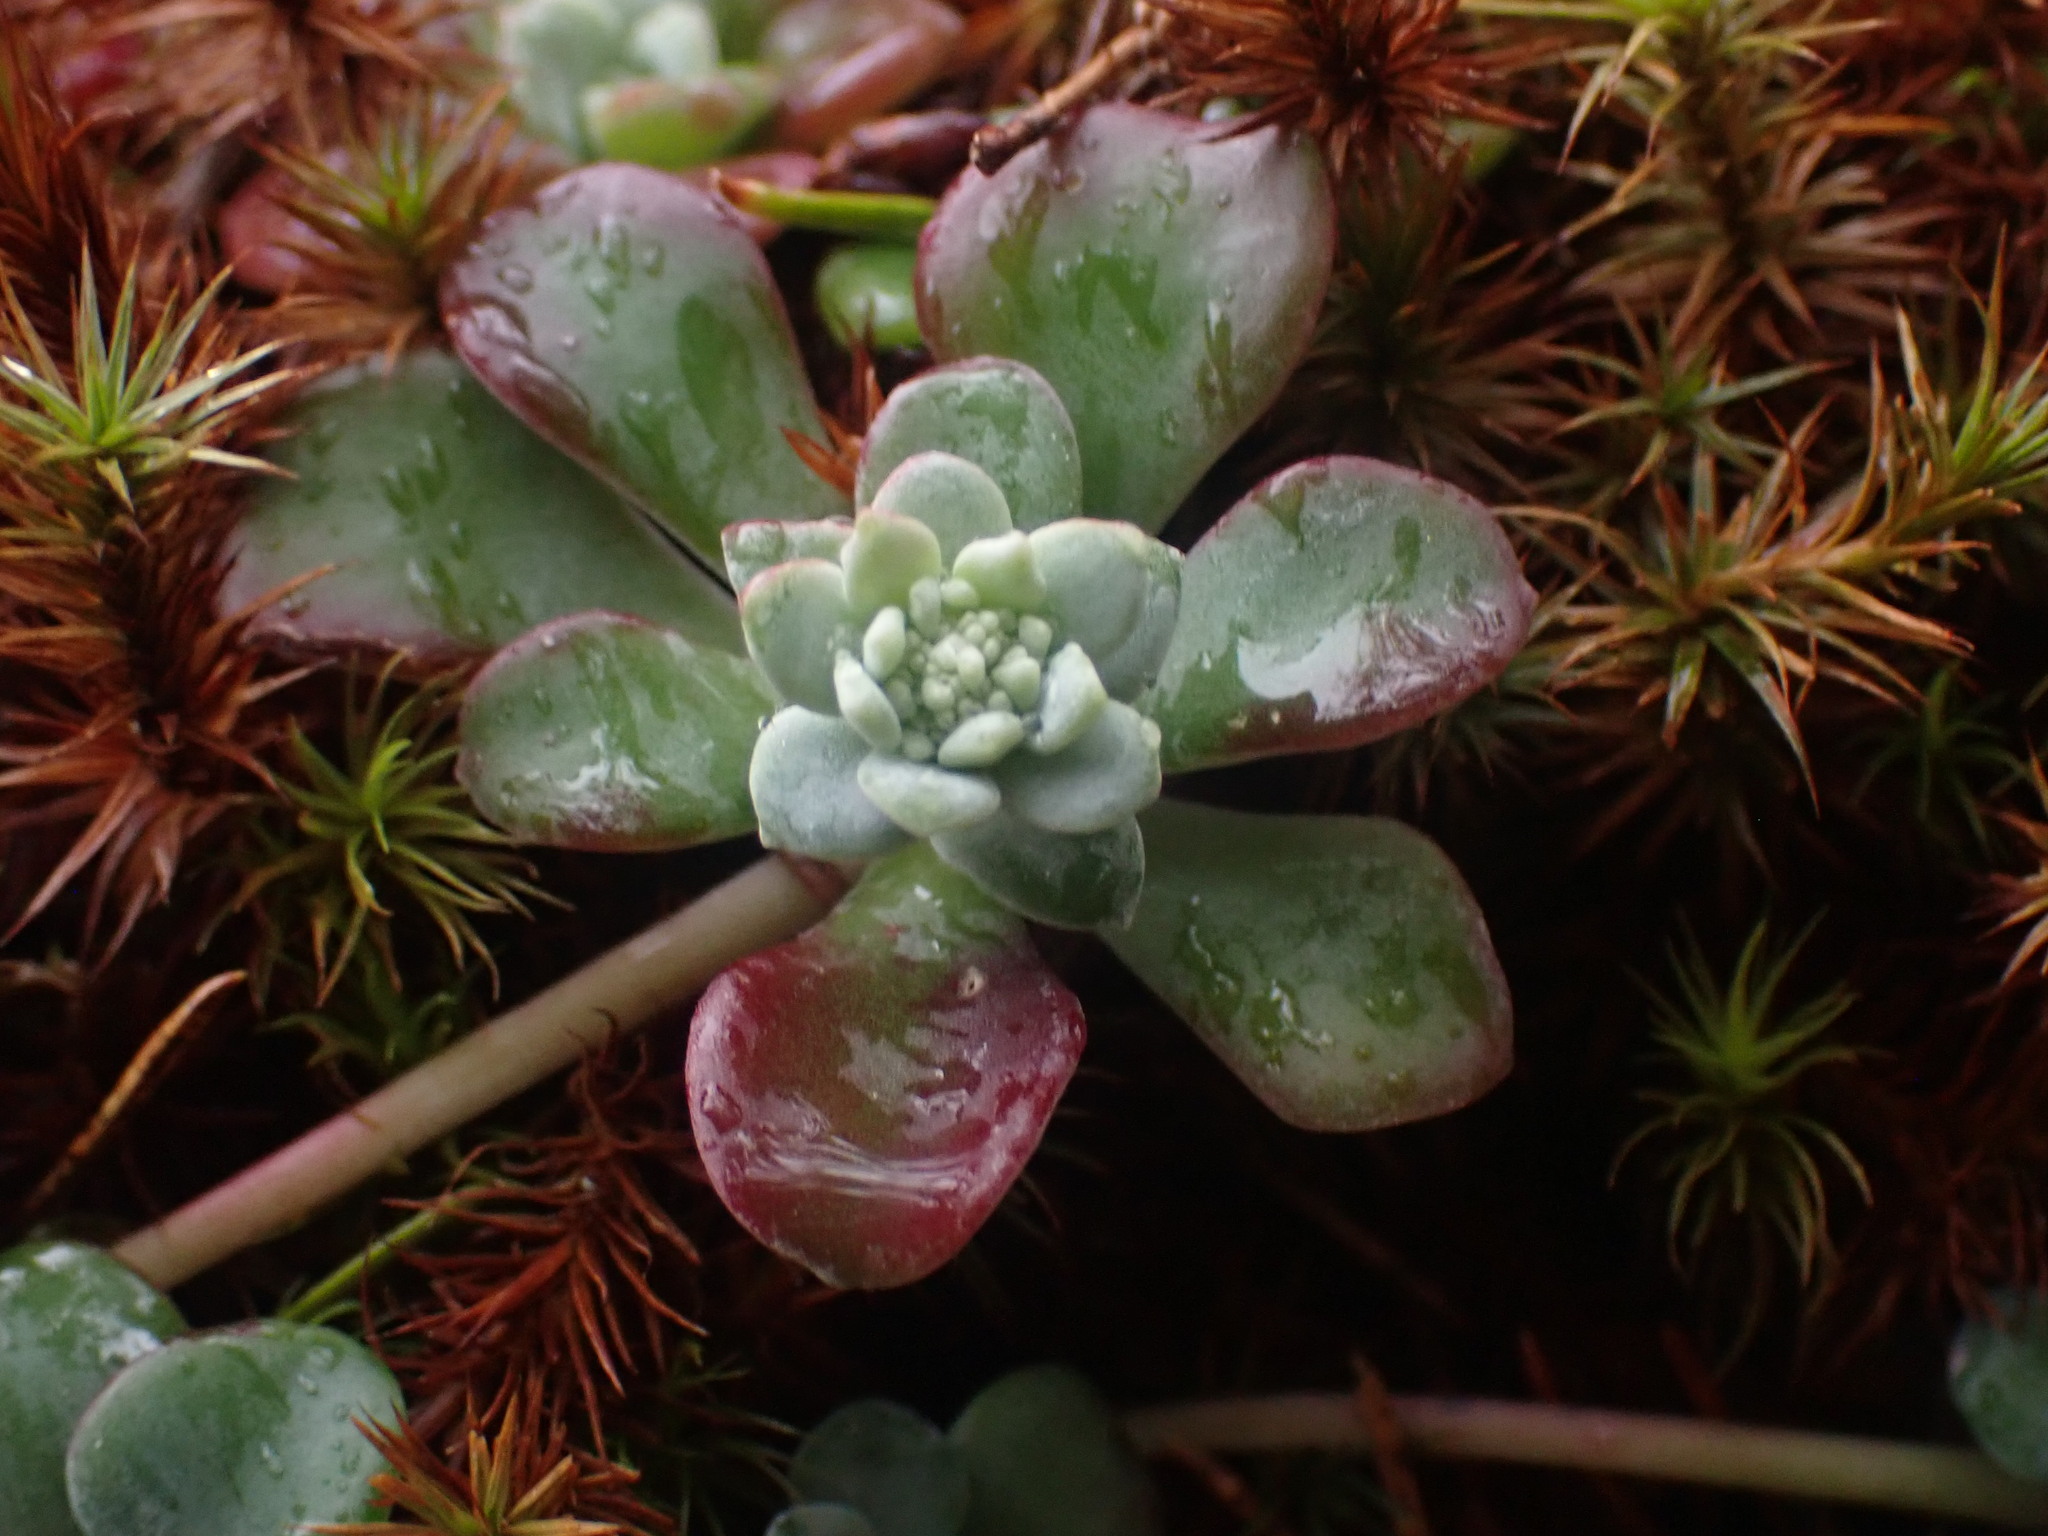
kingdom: Plantae
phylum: Tracheophyta
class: Magnoliopsida
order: Saxifragales
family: Crassulaceae
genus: Sedum
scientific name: Sedum spathulifolium
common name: Colorado stonecrop
